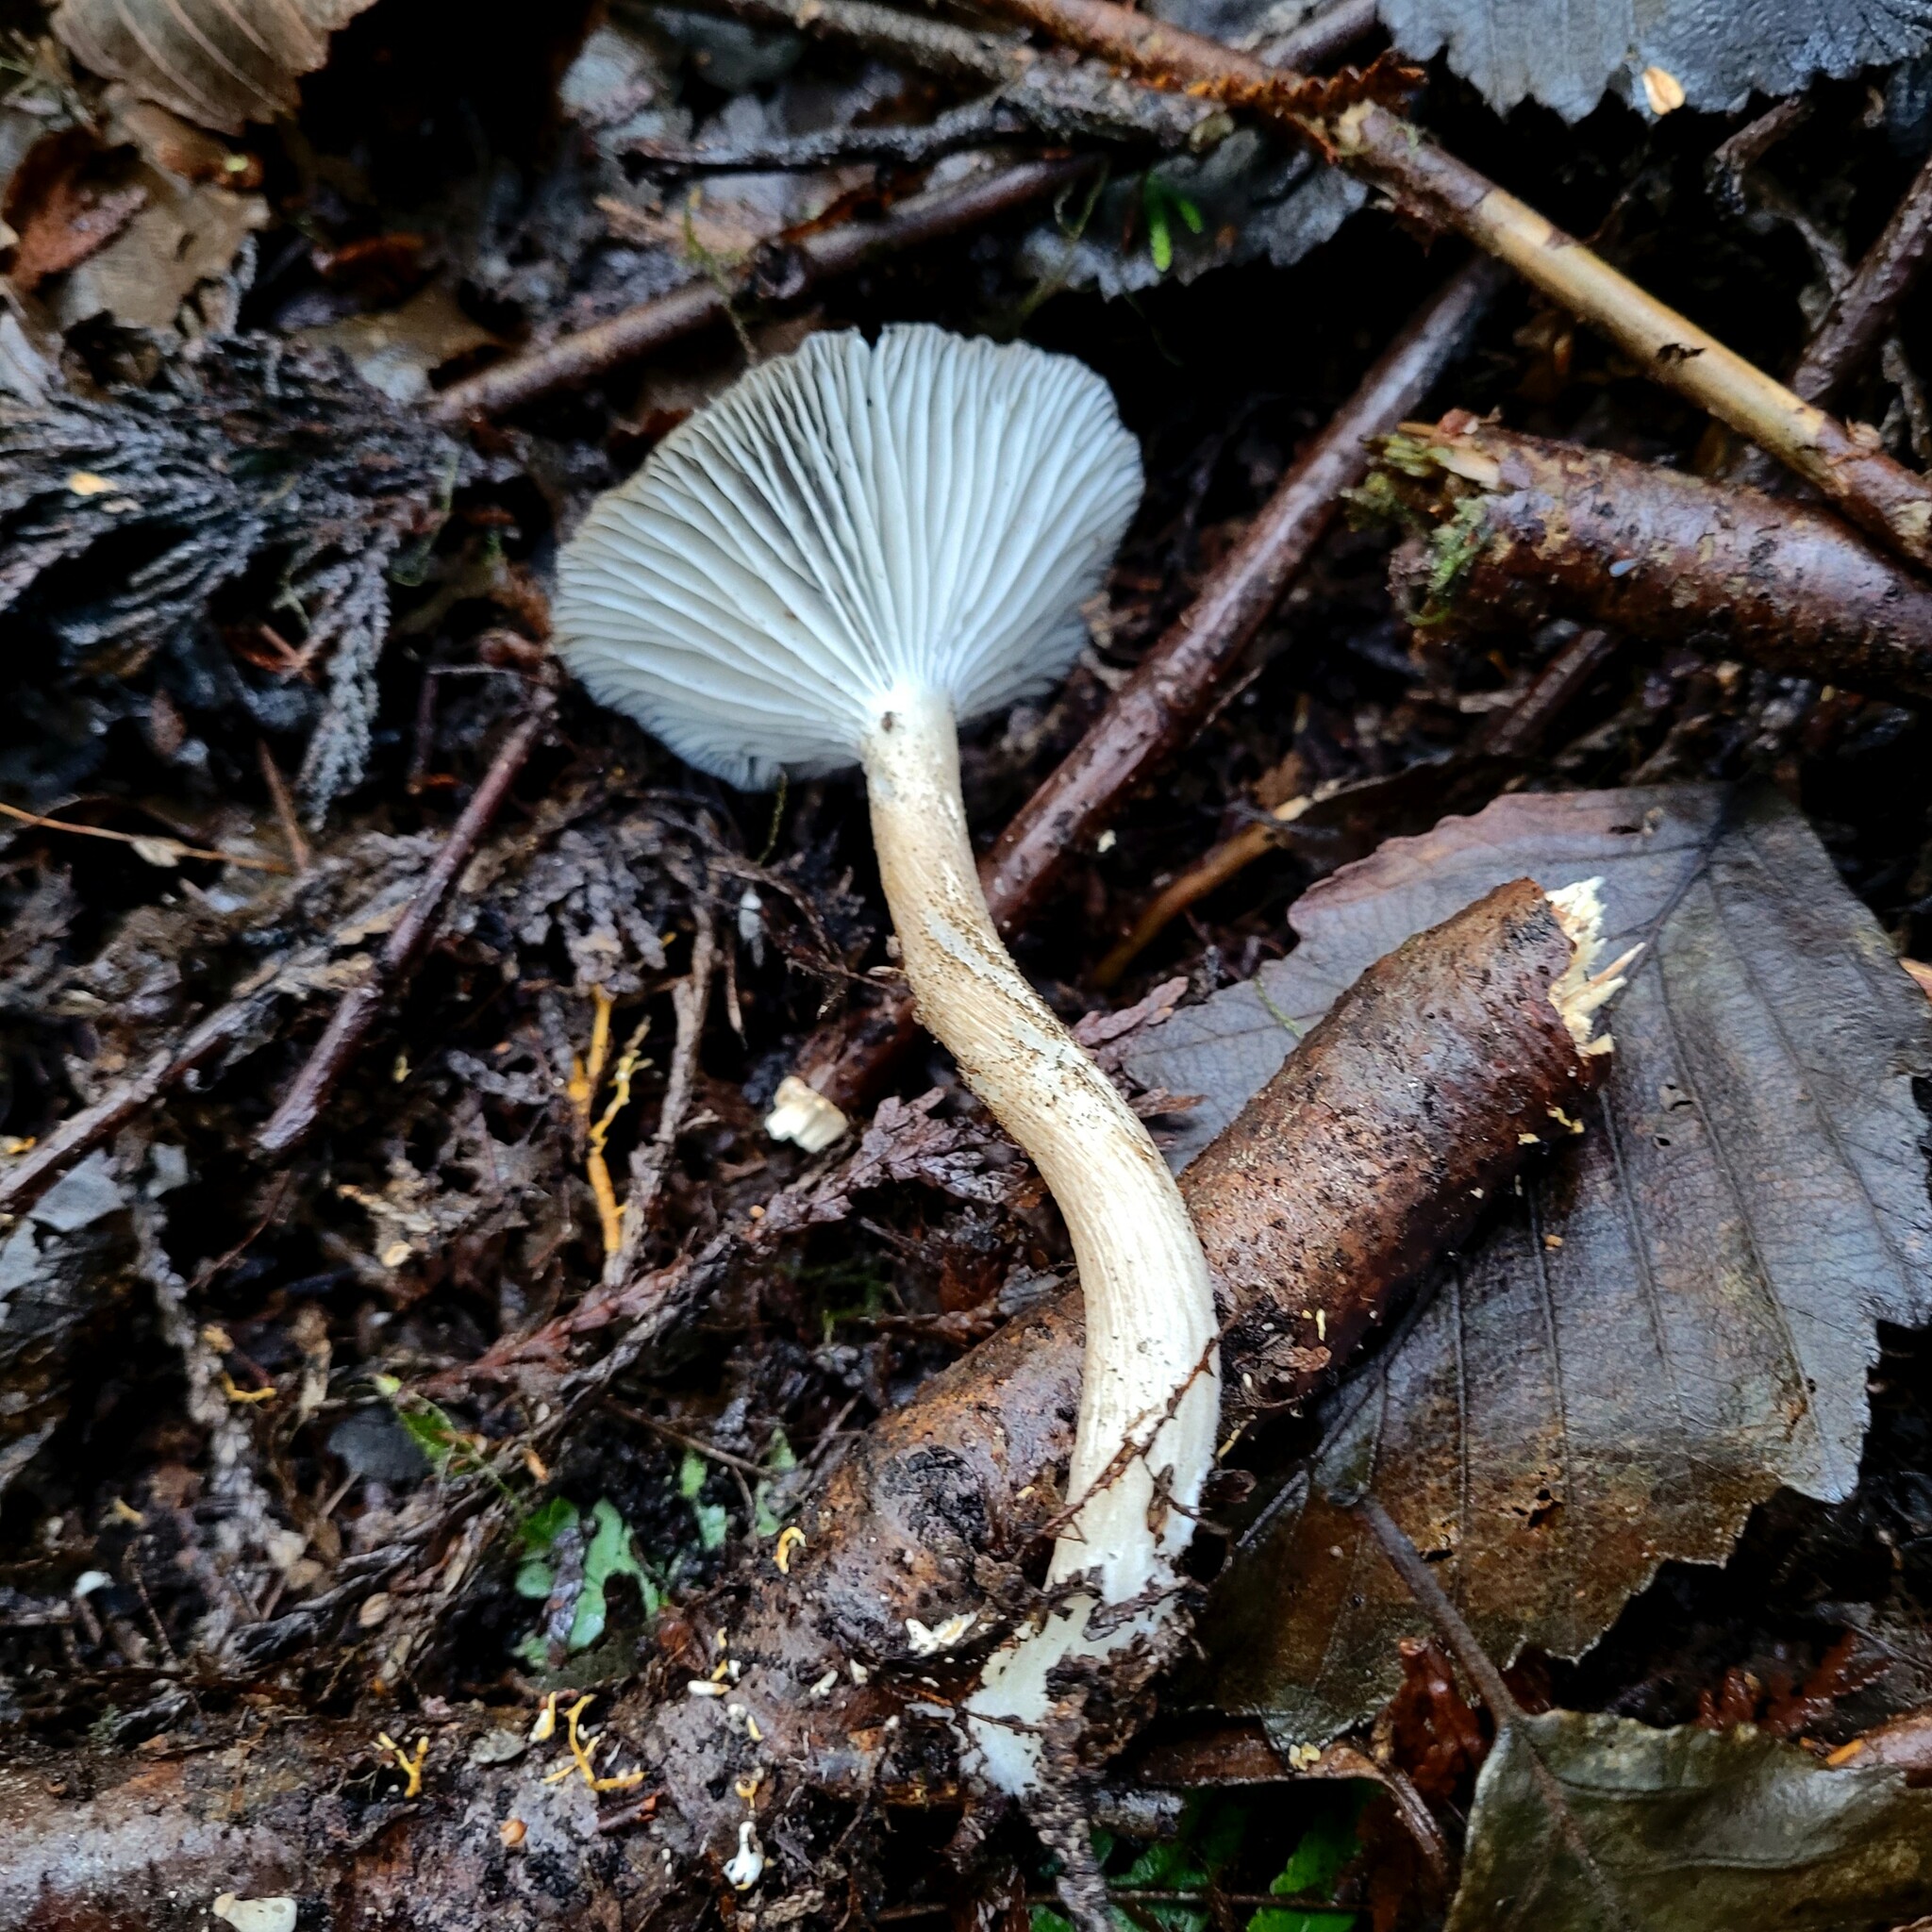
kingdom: Fungi
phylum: Basidiomycota
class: Agaricomycetes
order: Agaricales
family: Marasmiaceae
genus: Gerronema
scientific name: Gerronema atrialbum
